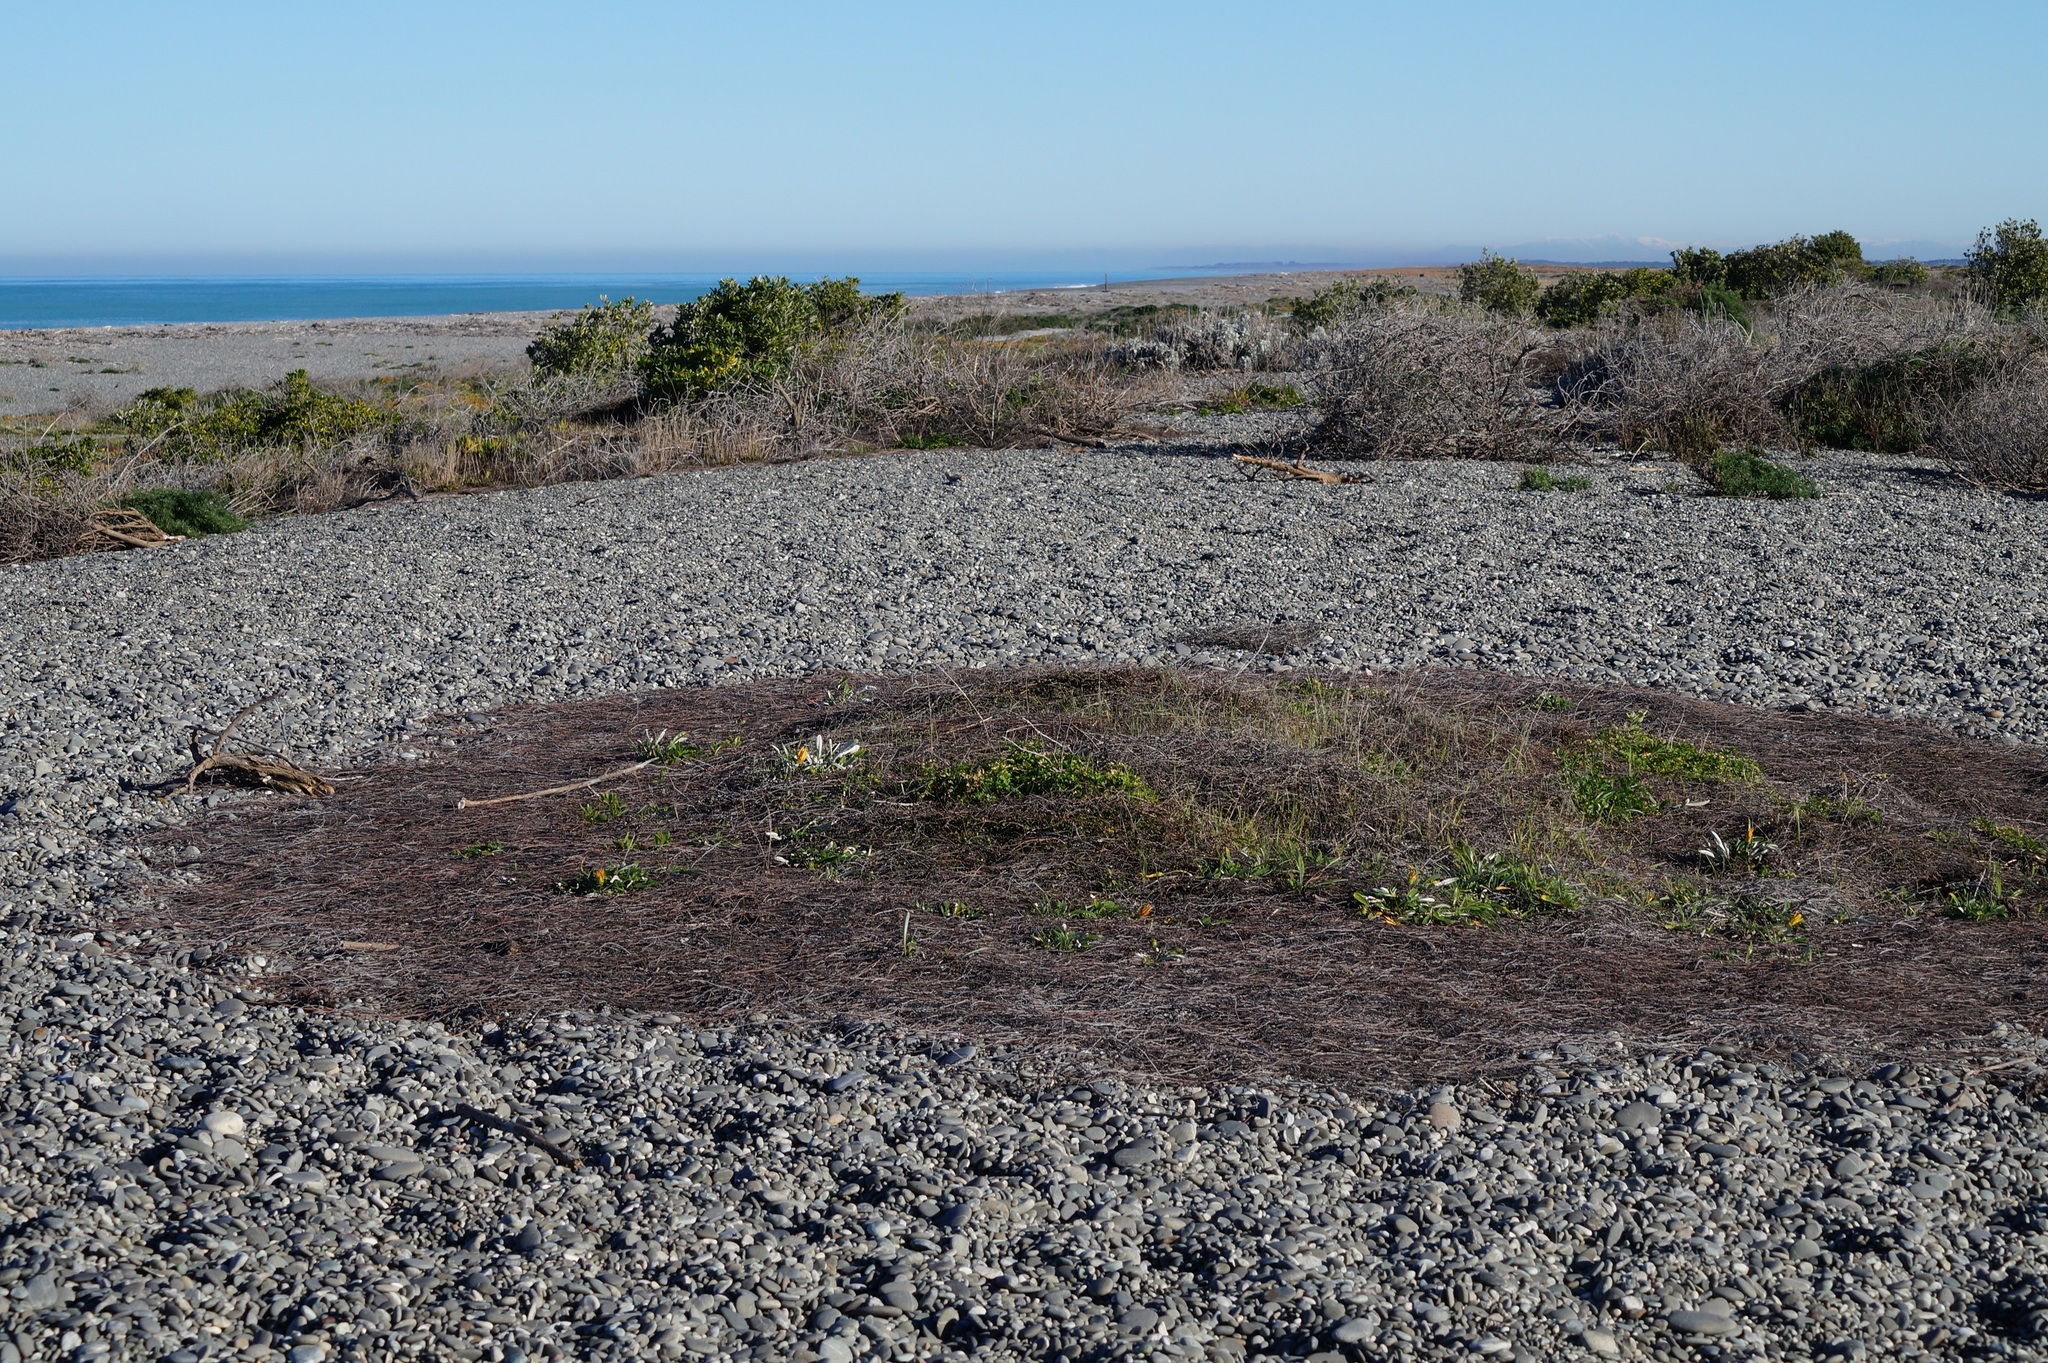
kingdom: Plantae
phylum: Tracheophyta
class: Magnoliopsida
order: Caryophyllales
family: Polygonaceae
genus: Muehlenbeckia
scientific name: Muehlenbeckia ephedroides
